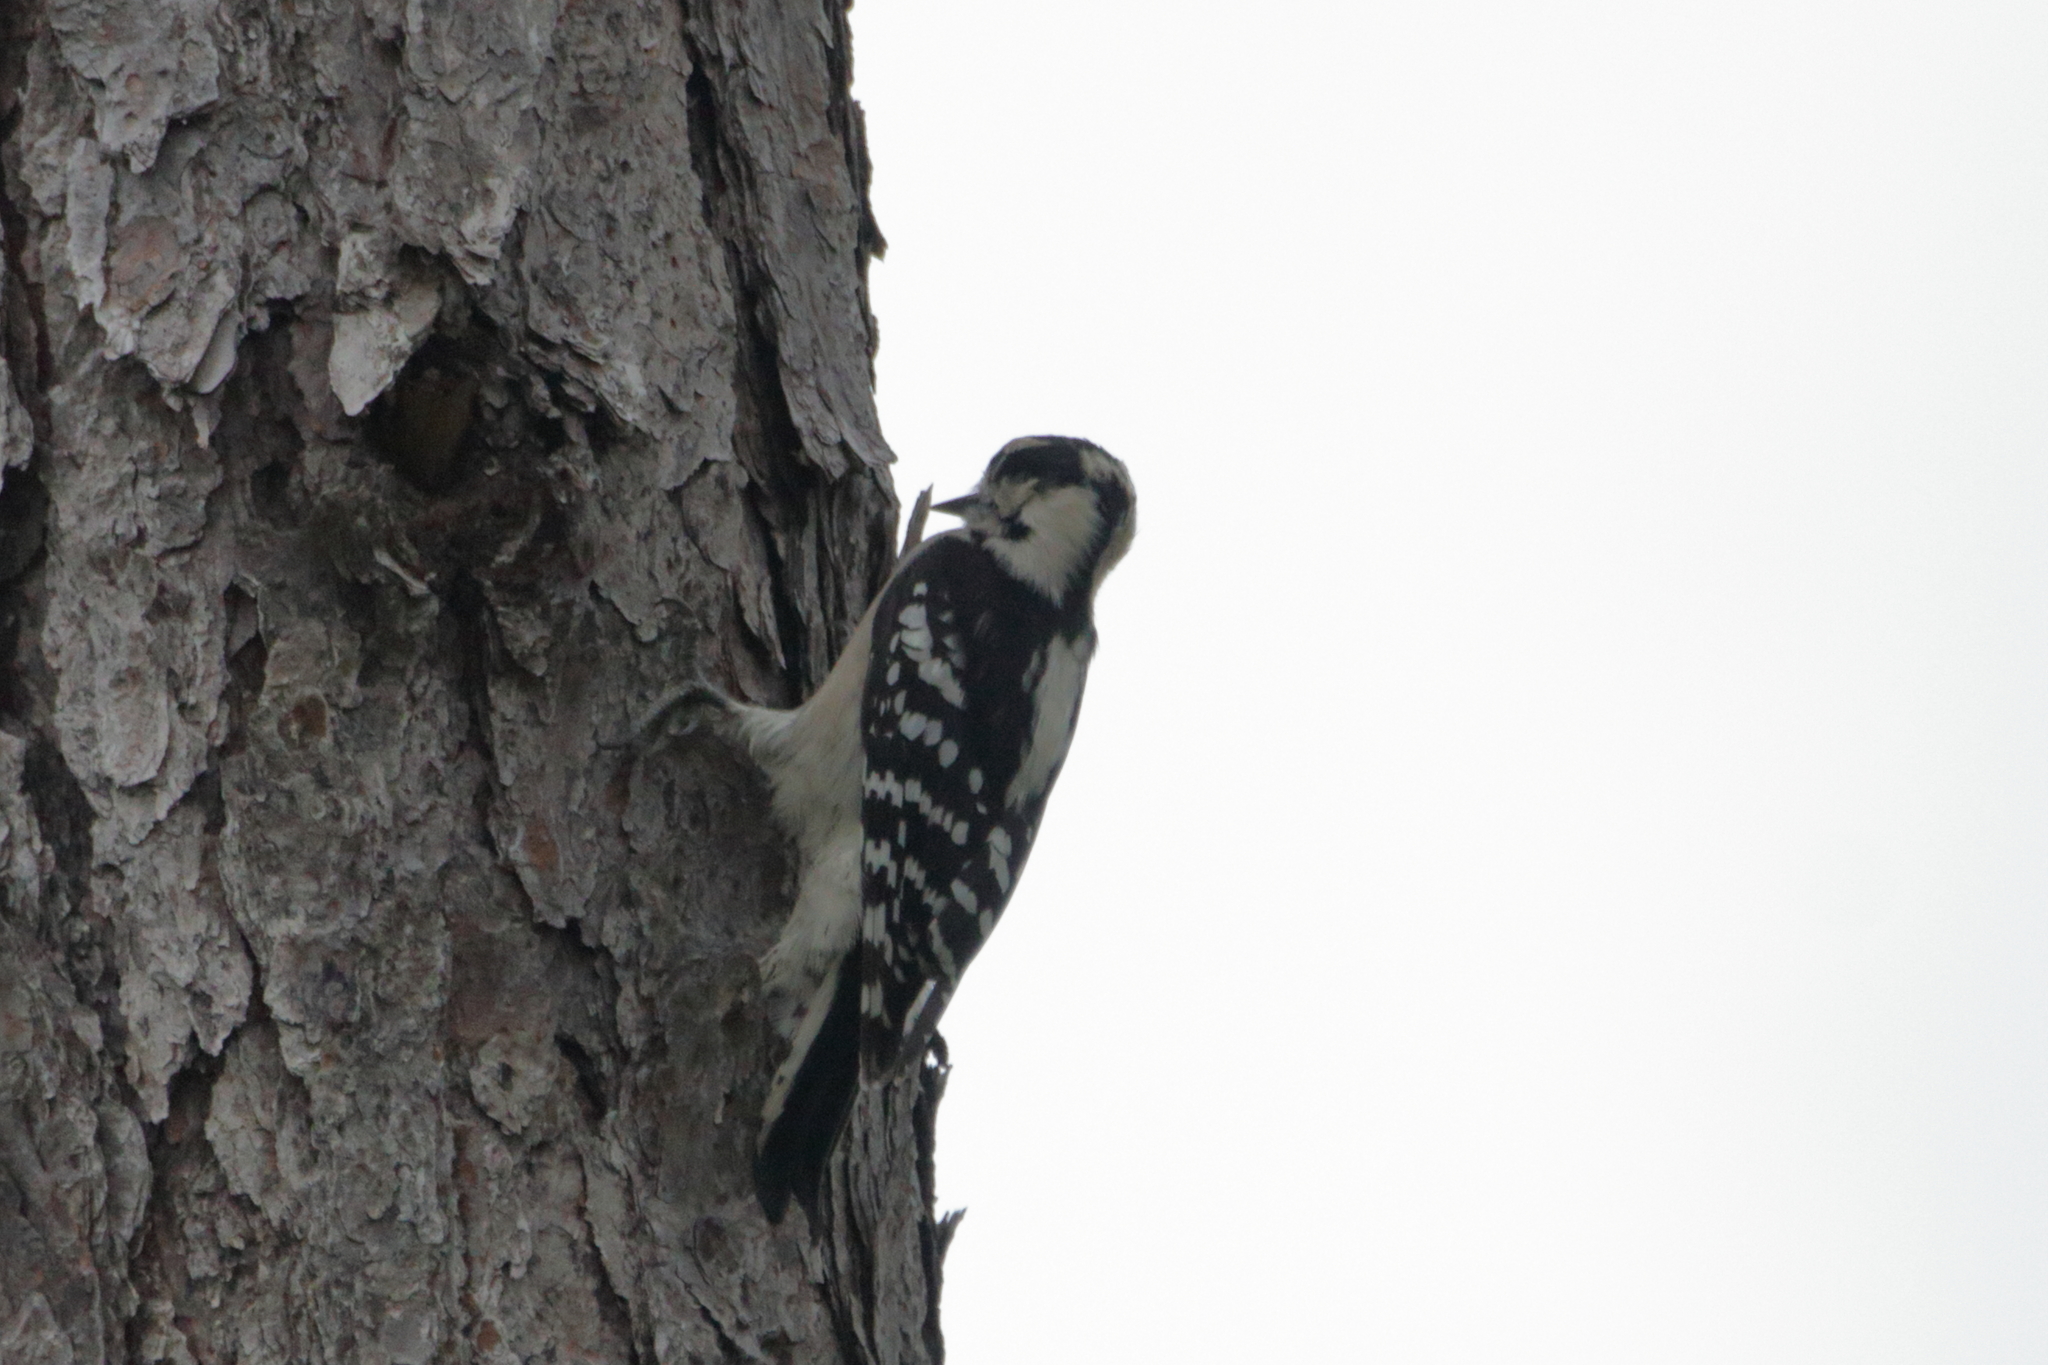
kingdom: Animalia
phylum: Chordata
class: Aves
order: Piciformes
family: Picidae
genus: Dryobates
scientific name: Dryobates pubescens
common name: Downy woodpecker
